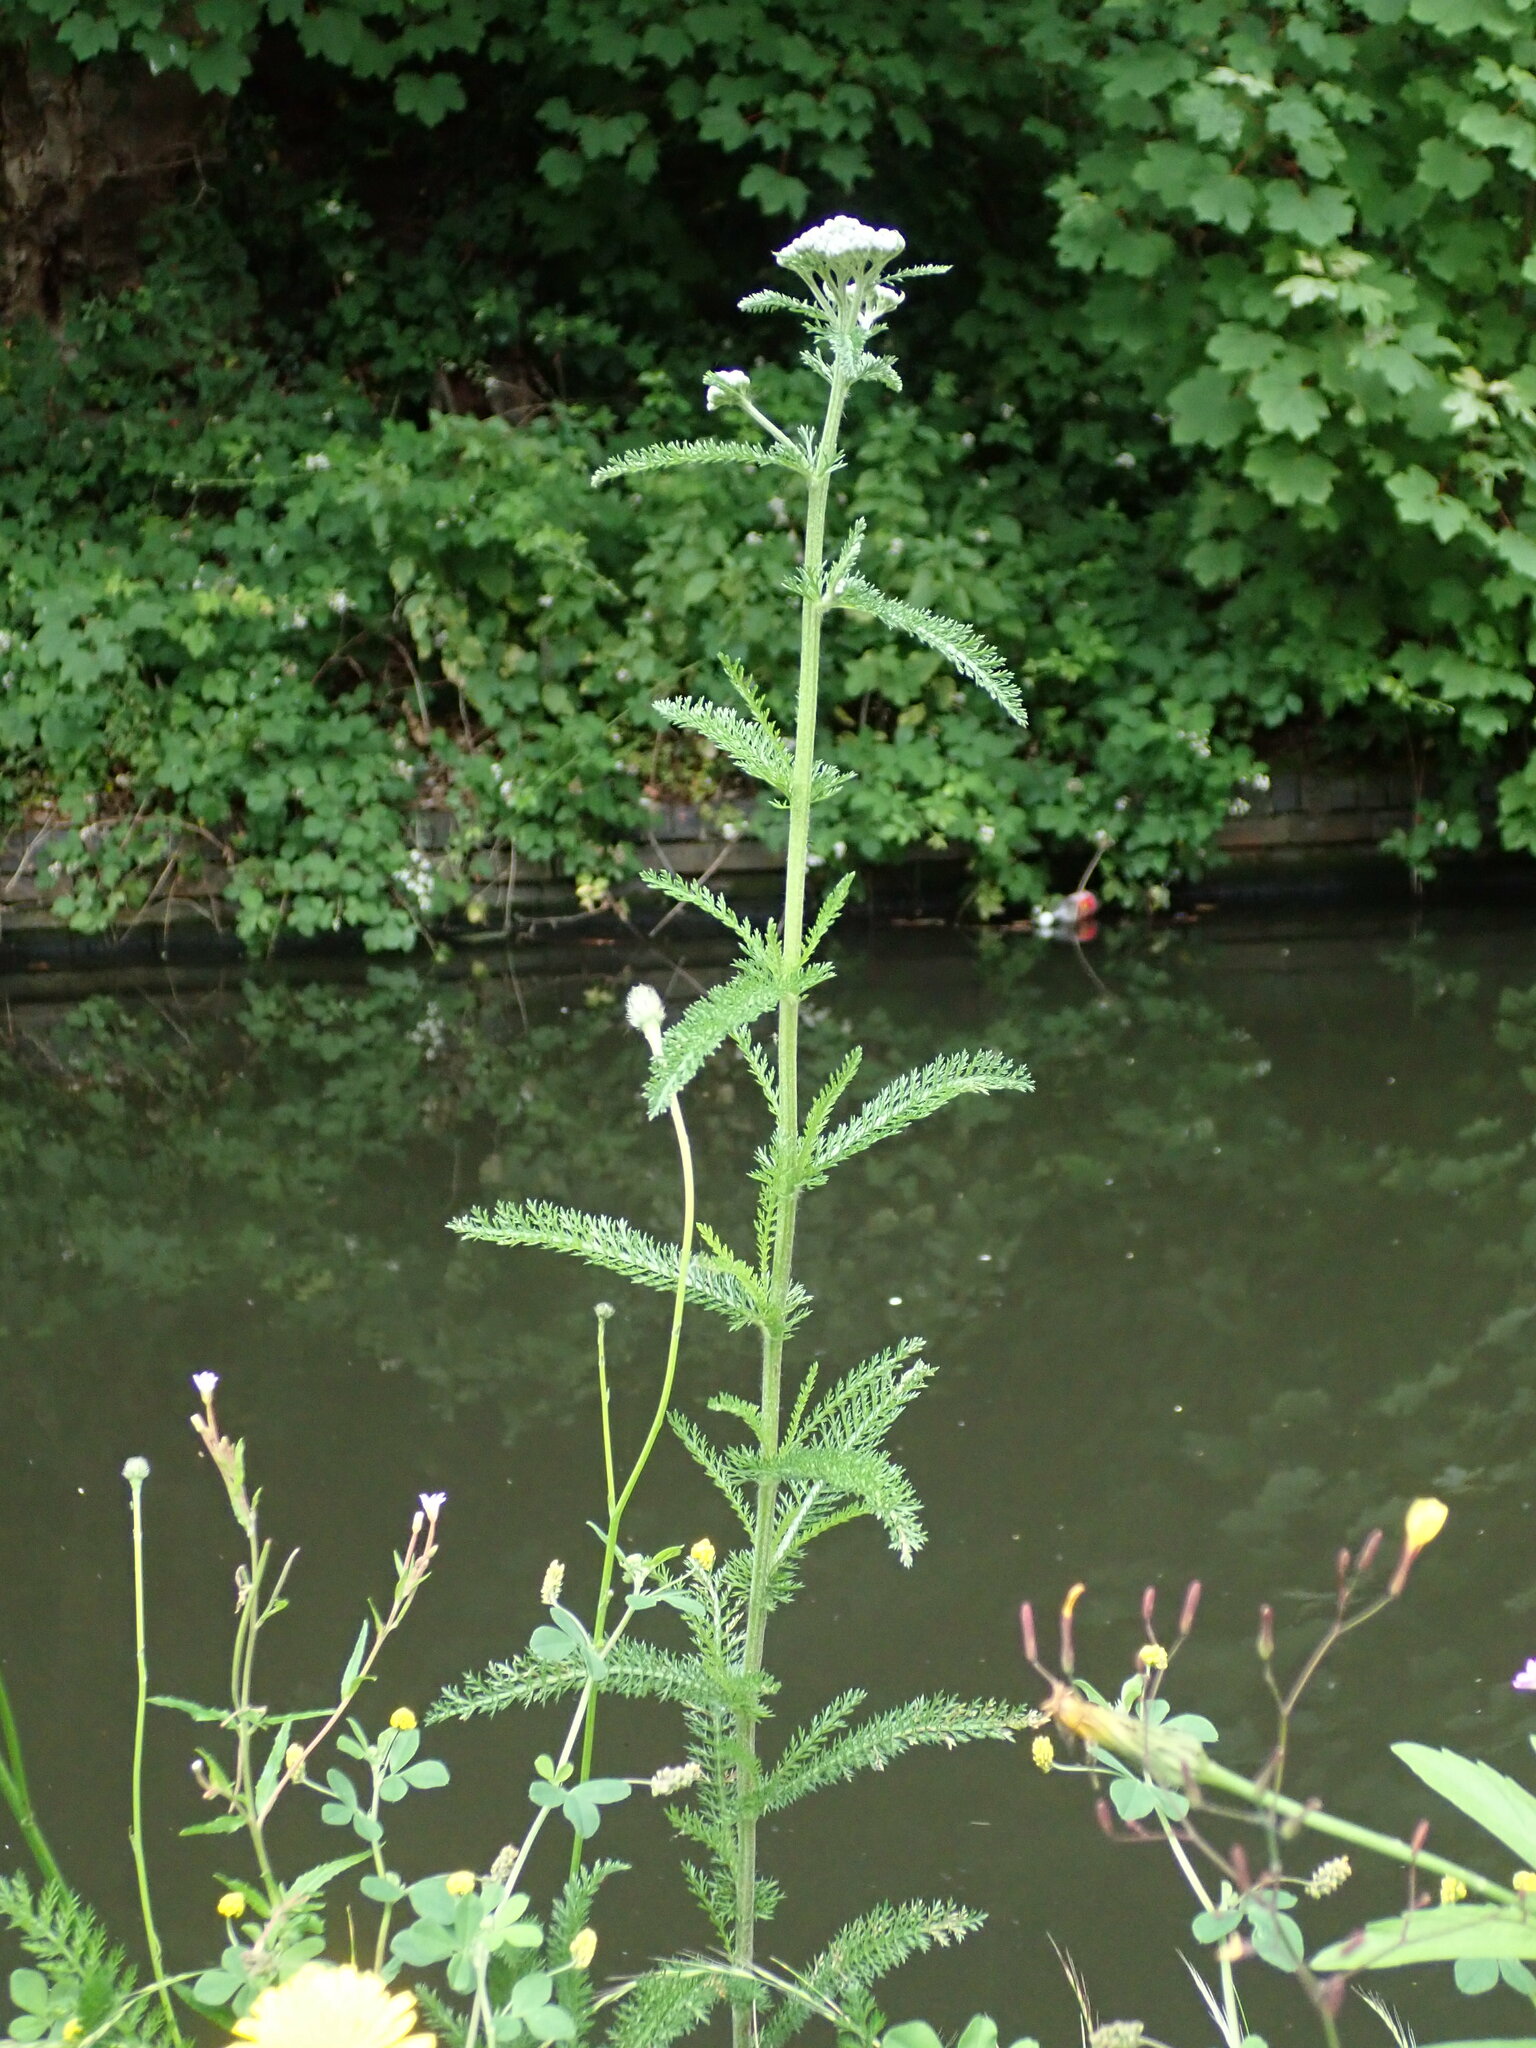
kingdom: Plantae
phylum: Tracheophyta
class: Magnoliopsida
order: Asterales
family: Asteraceae
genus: Achillea
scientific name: Achillea millefolium
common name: Yarrow
